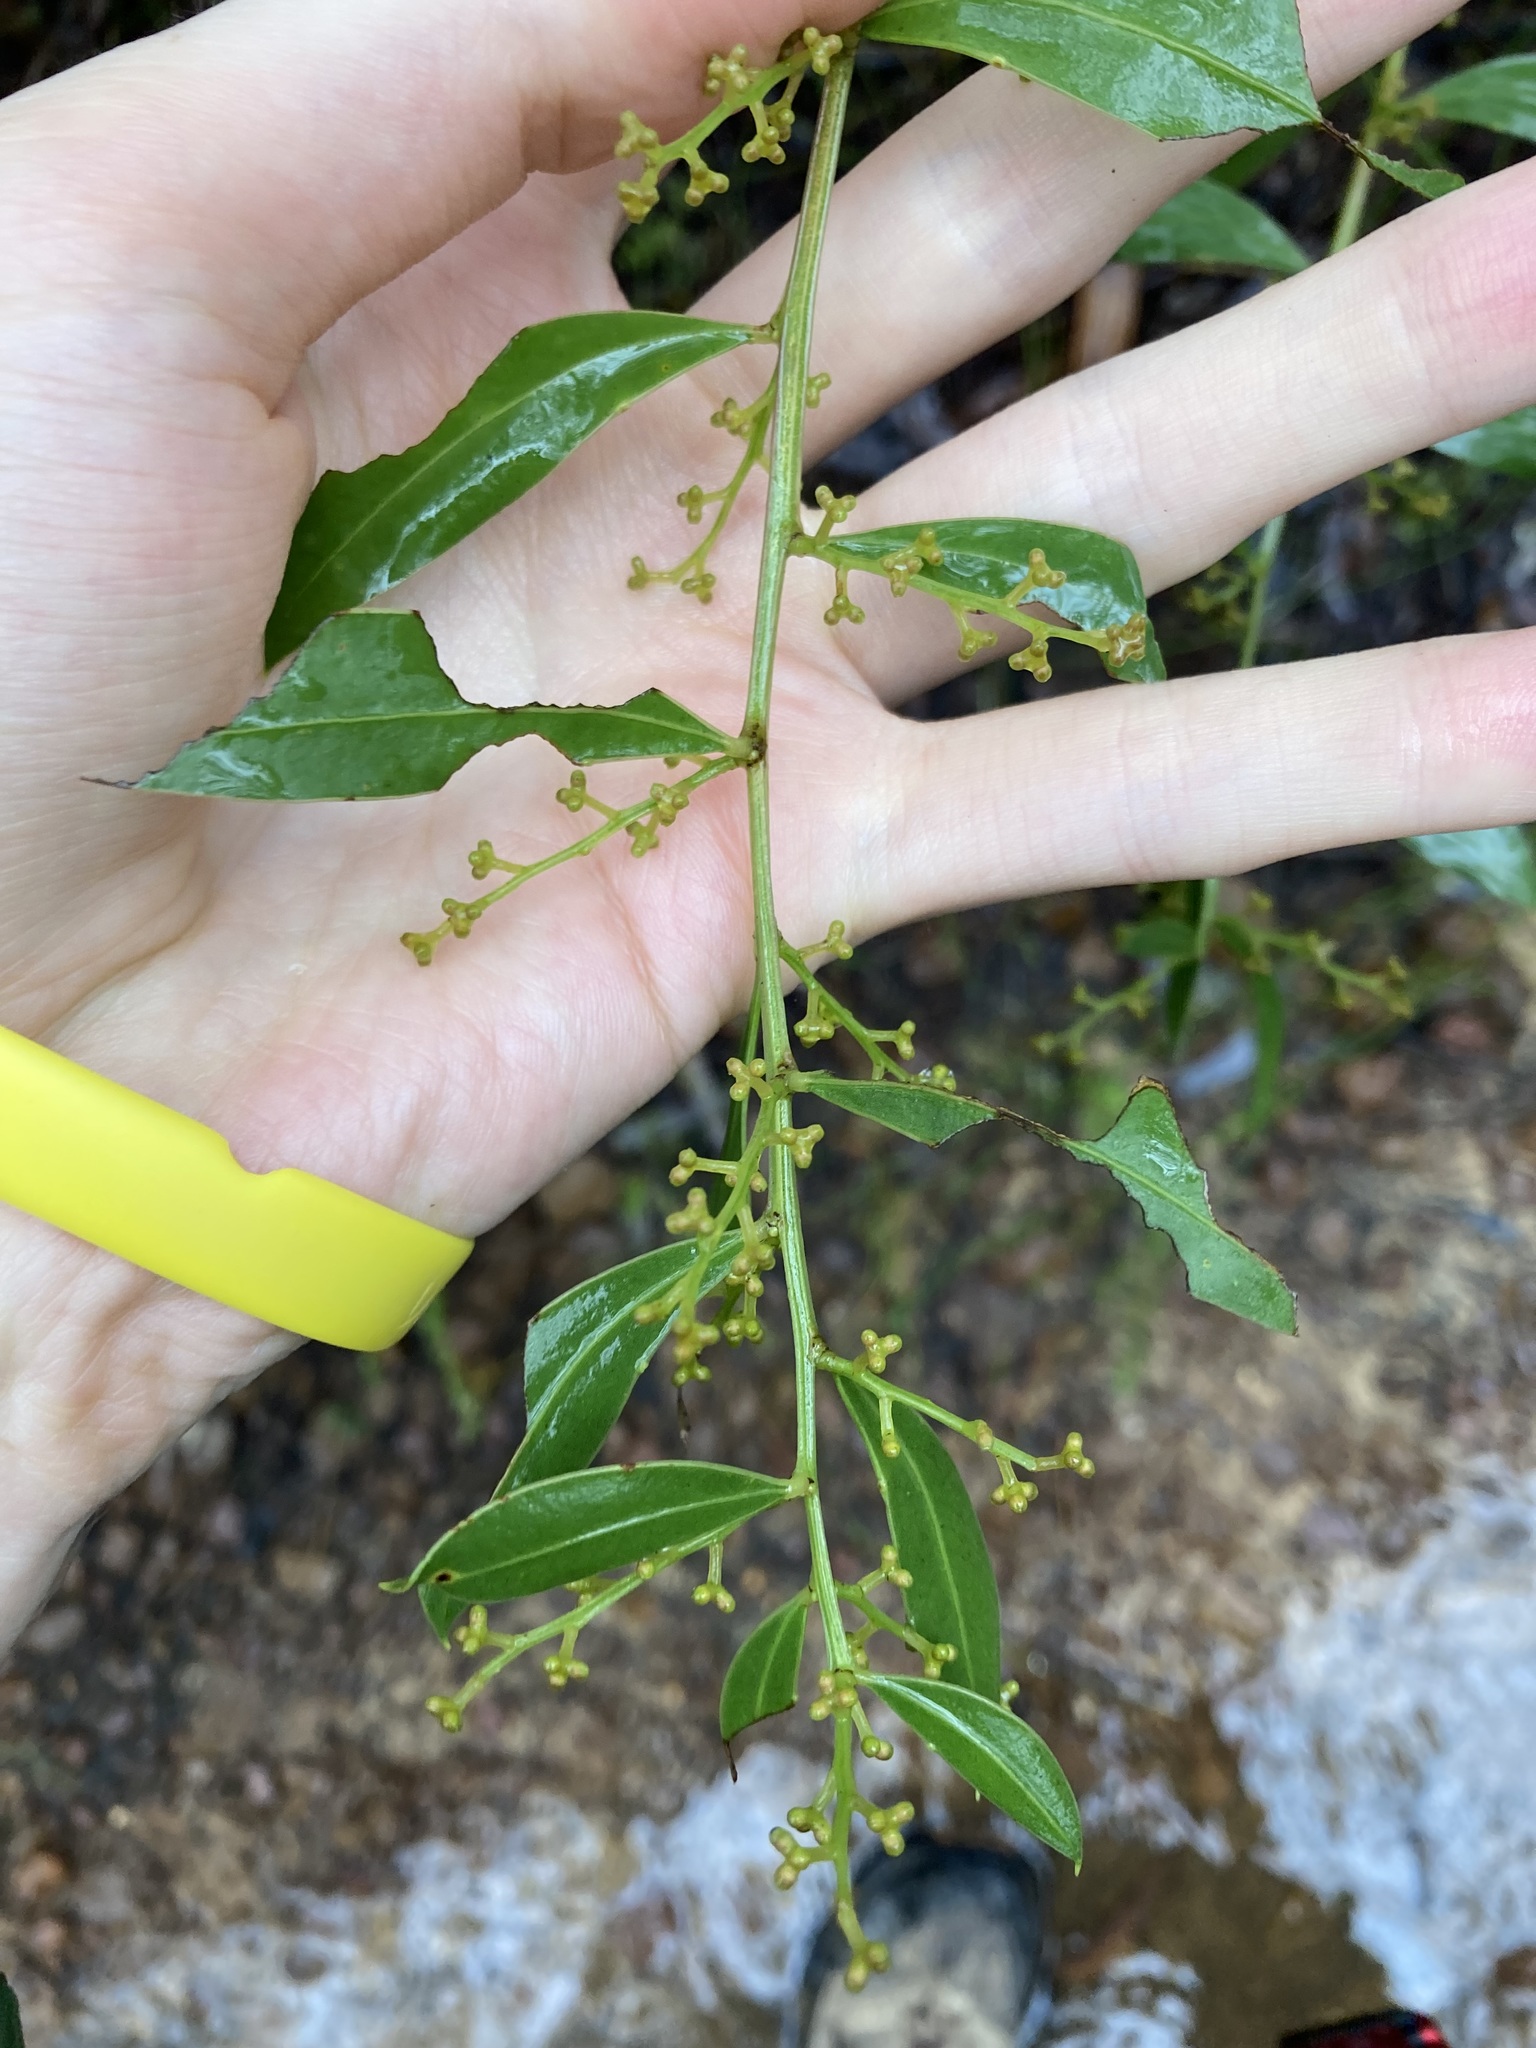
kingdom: Plantae
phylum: Tracheophyta
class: Magnoliopsida
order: Fabales
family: Fabaceae
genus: Acacia
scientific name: Acacia myrtifolia
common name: Myrtle wattle
